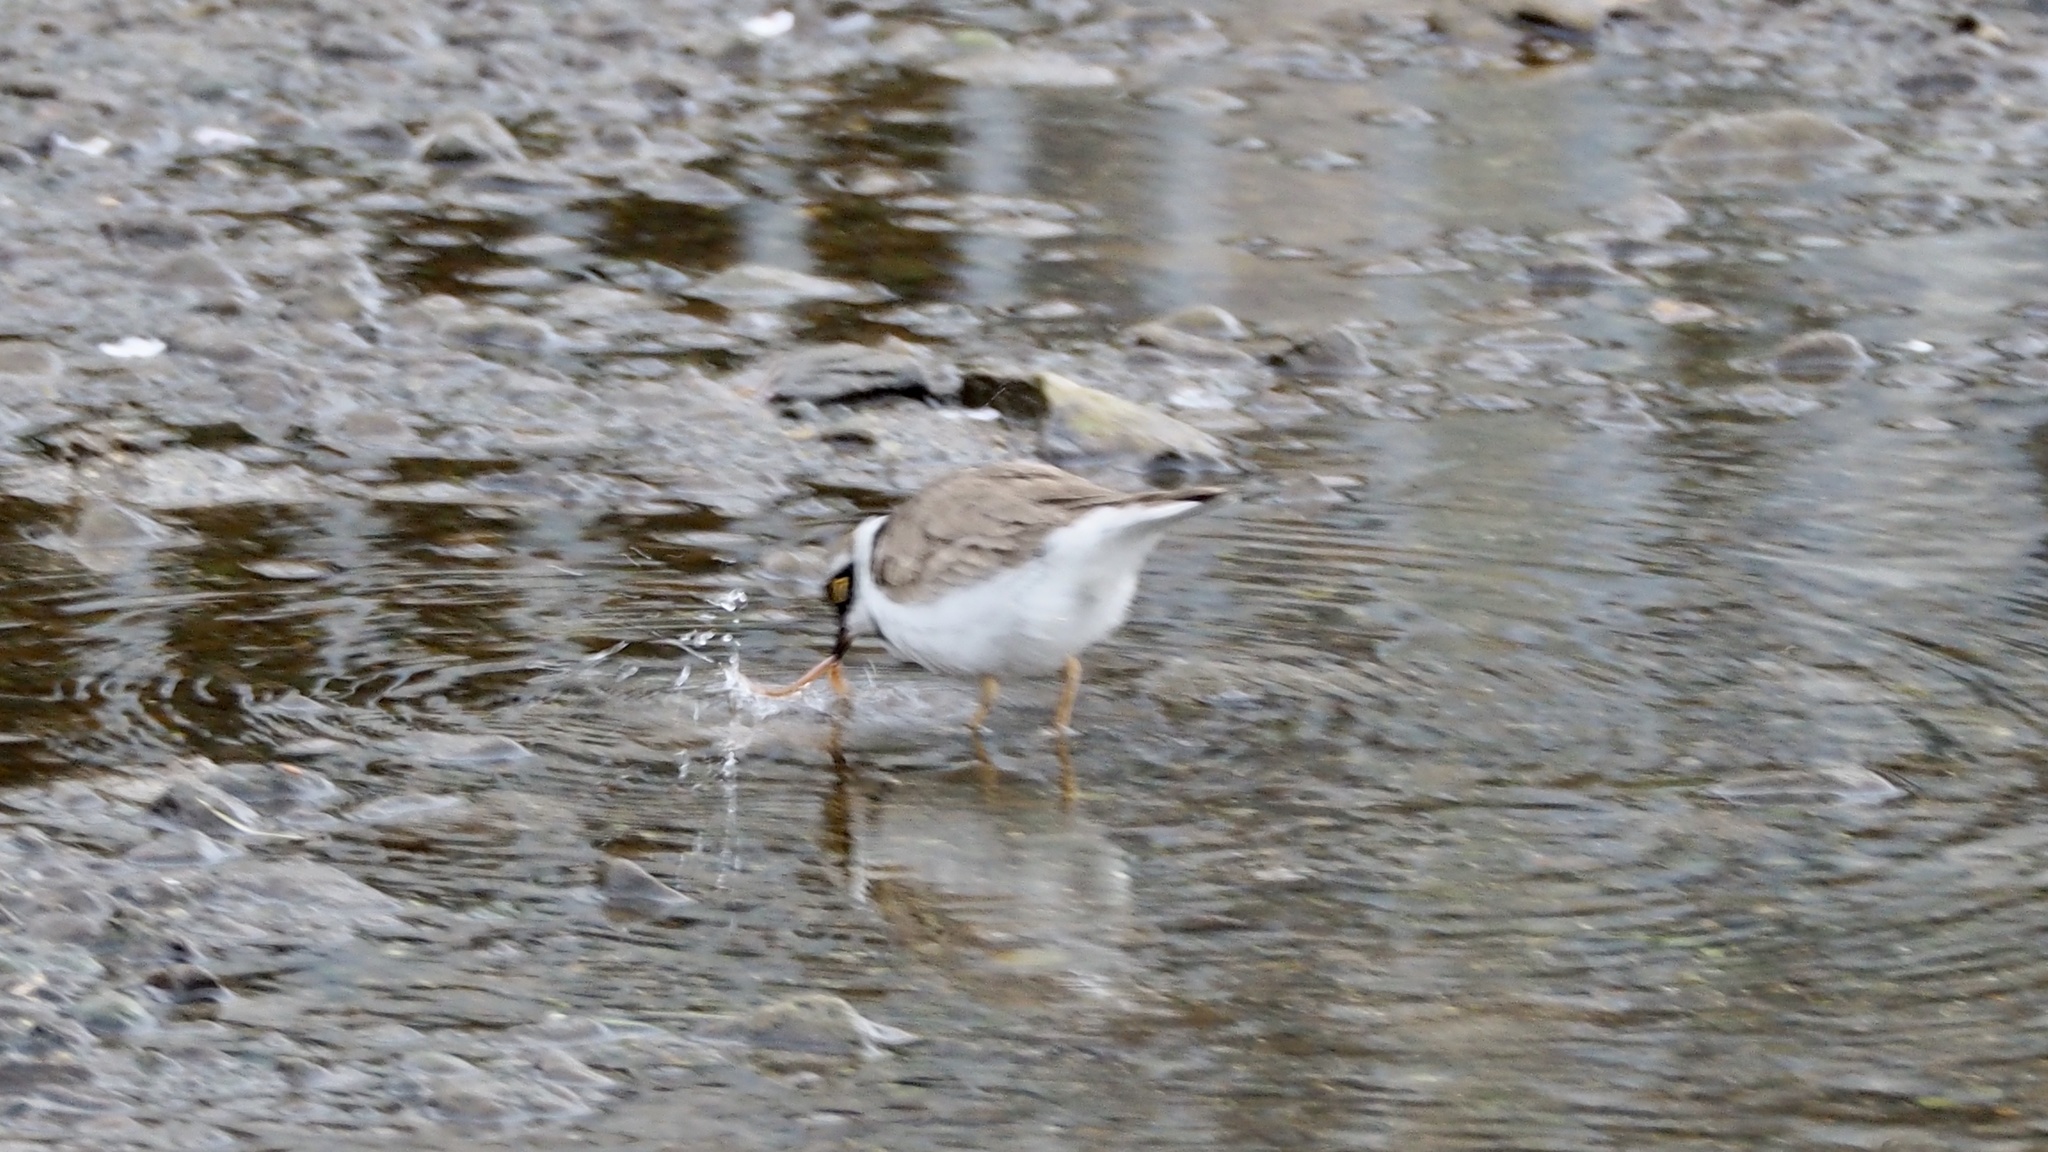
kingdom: Animalia
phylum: Chordata
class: Aves
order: Charadriiformes
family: Charadriidae
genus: Charadrius
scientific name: Charadrius dubius
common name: Little ringed plover
